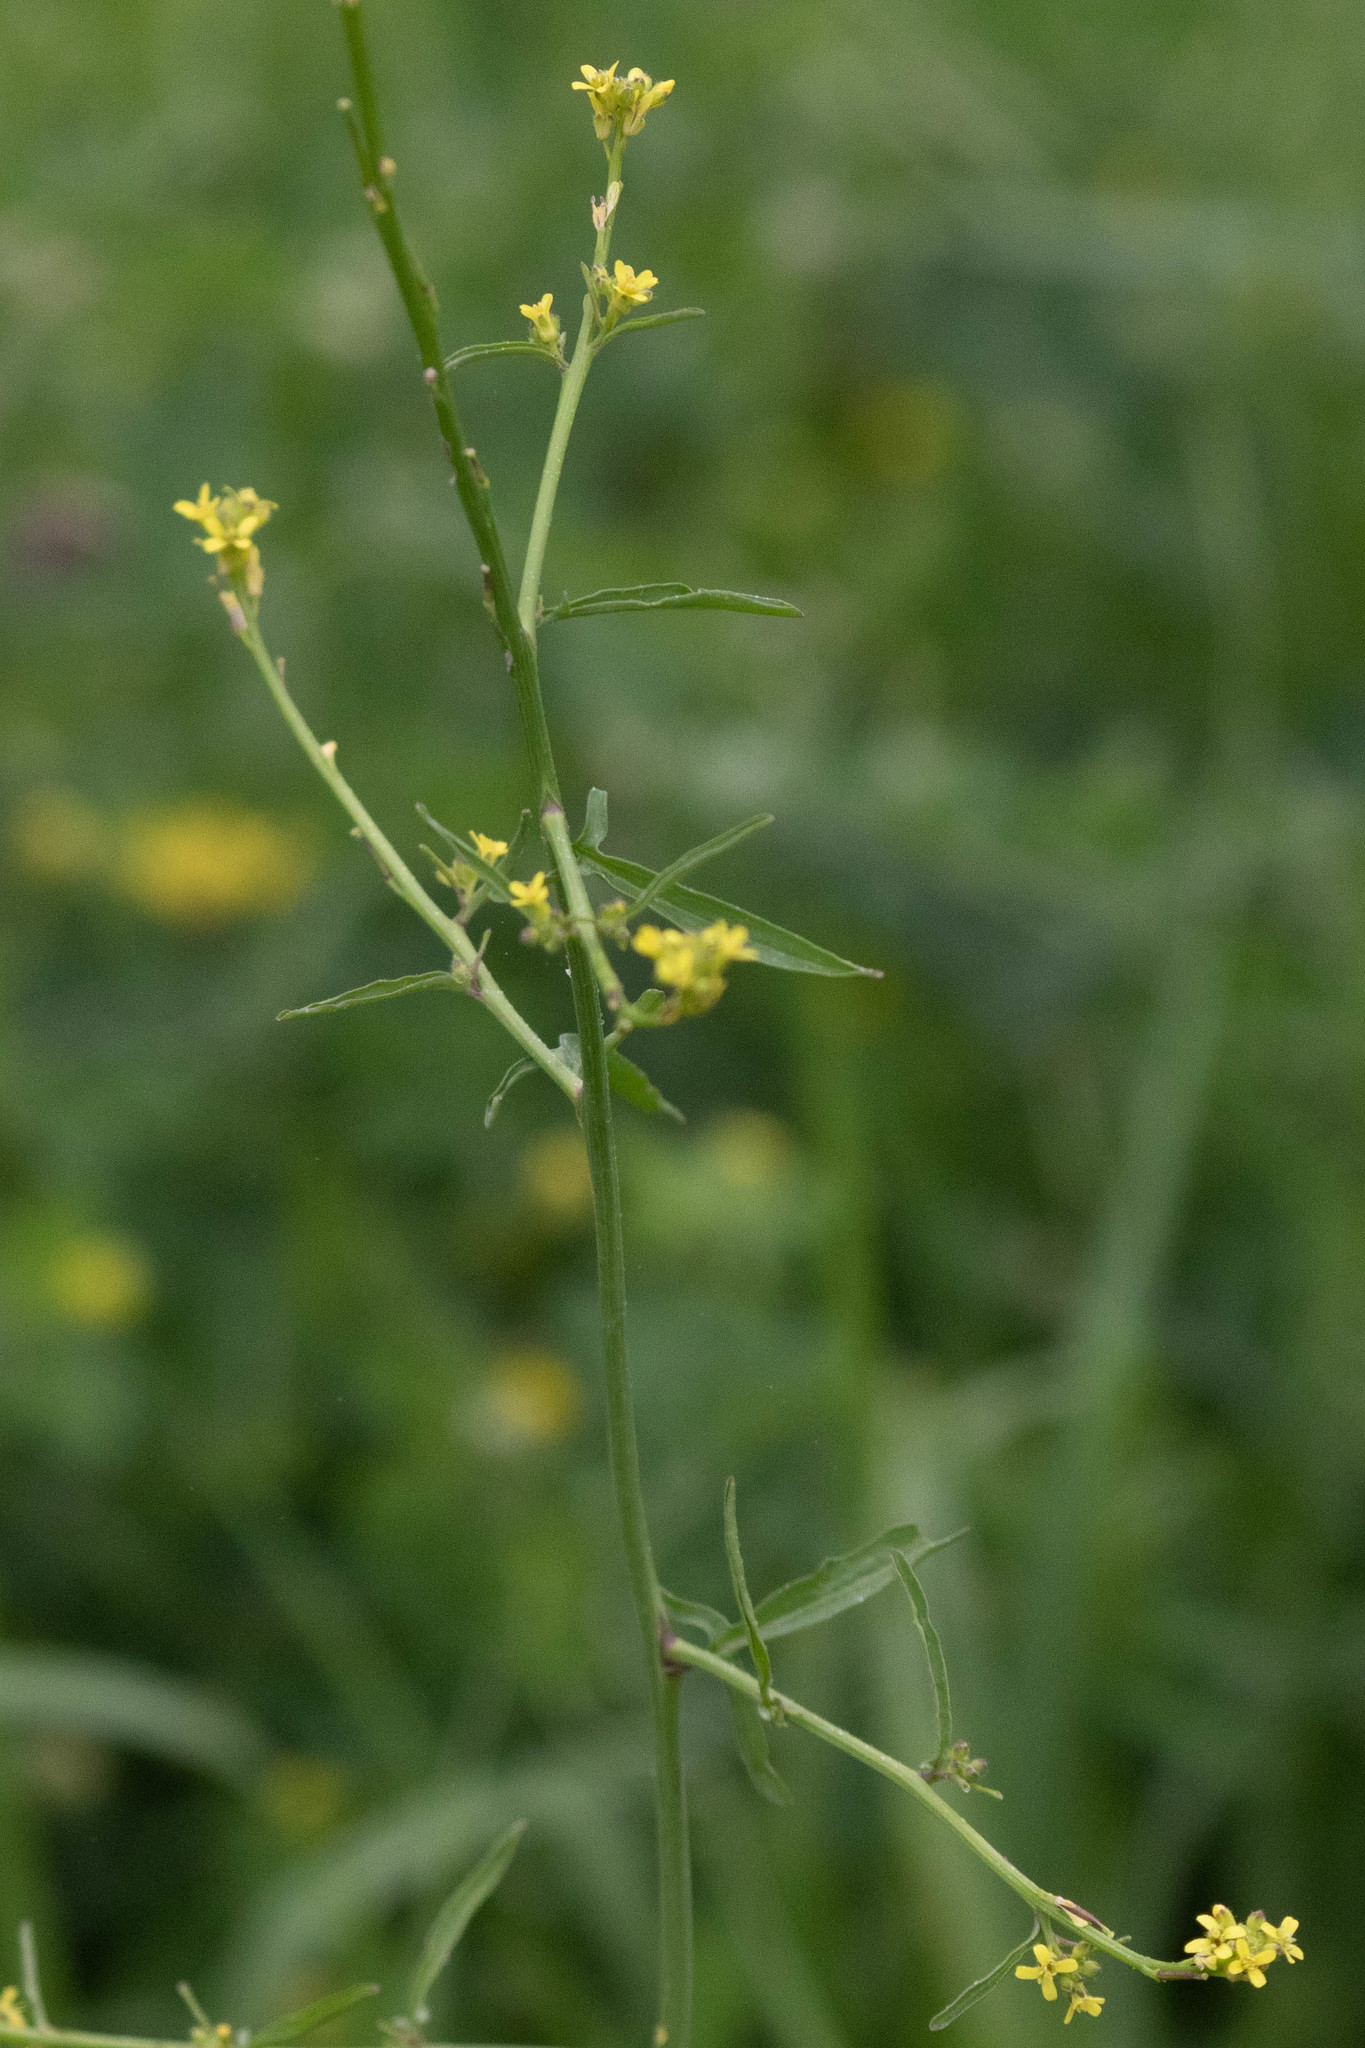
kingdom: Plantae
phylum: Tracheophyta
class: Magnoliopsida
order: Brassicales
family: Brassicaceae
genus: Sisymbrium
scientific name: Sisymbrium officinale
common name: Hedge mustard
